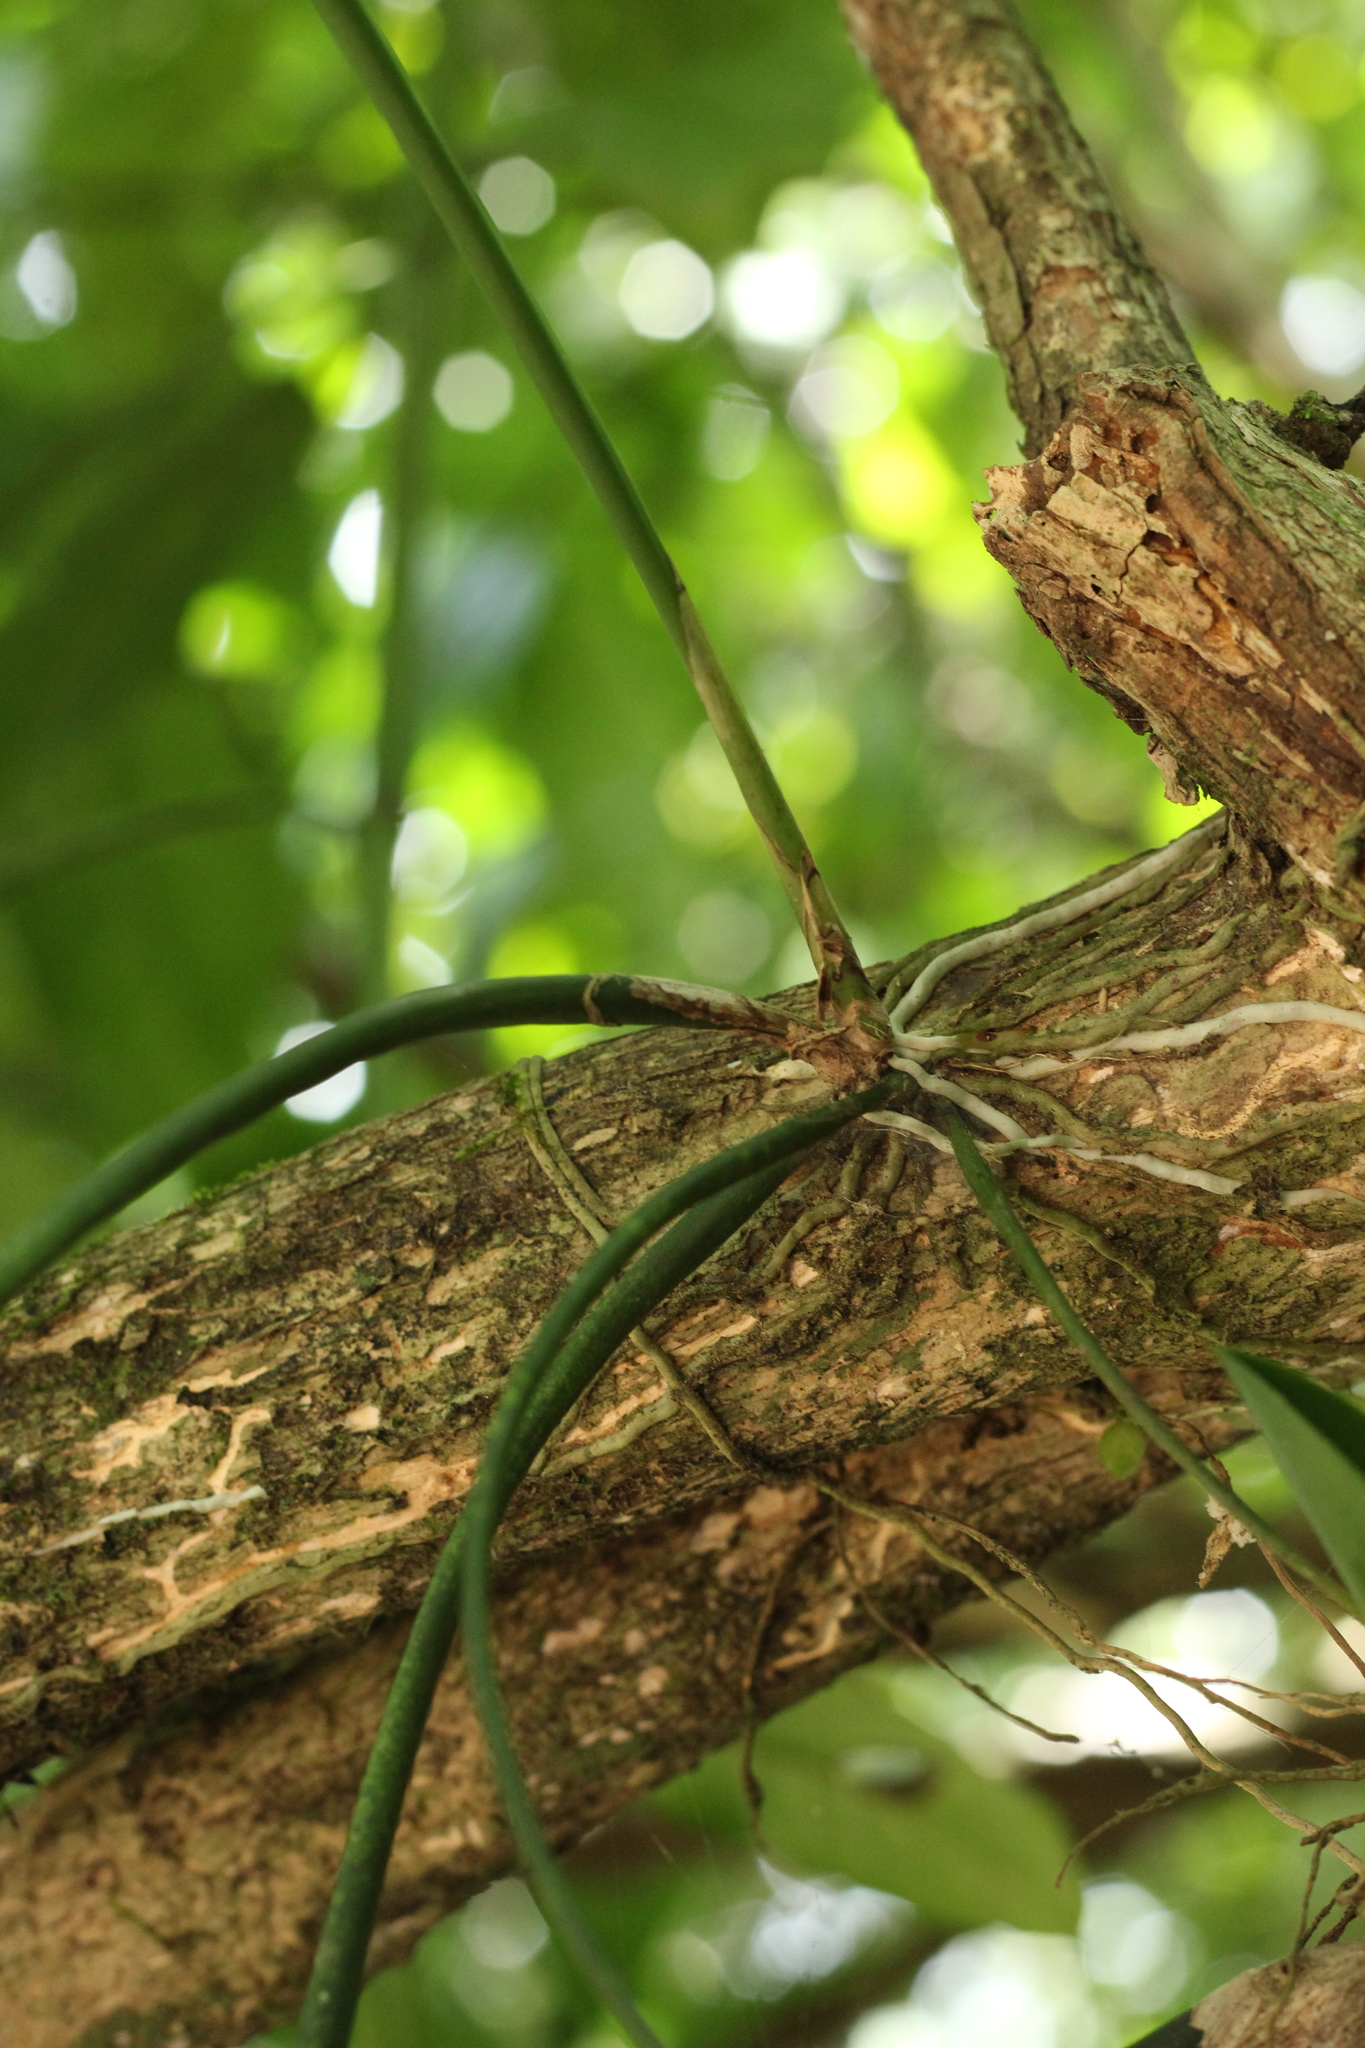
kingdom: Plantae
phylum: Tracheophyta
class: Liliopsida
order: Asparagales
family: Orchidaceae
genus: Trichocentrum
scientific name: Trichocentrum cebolleta
